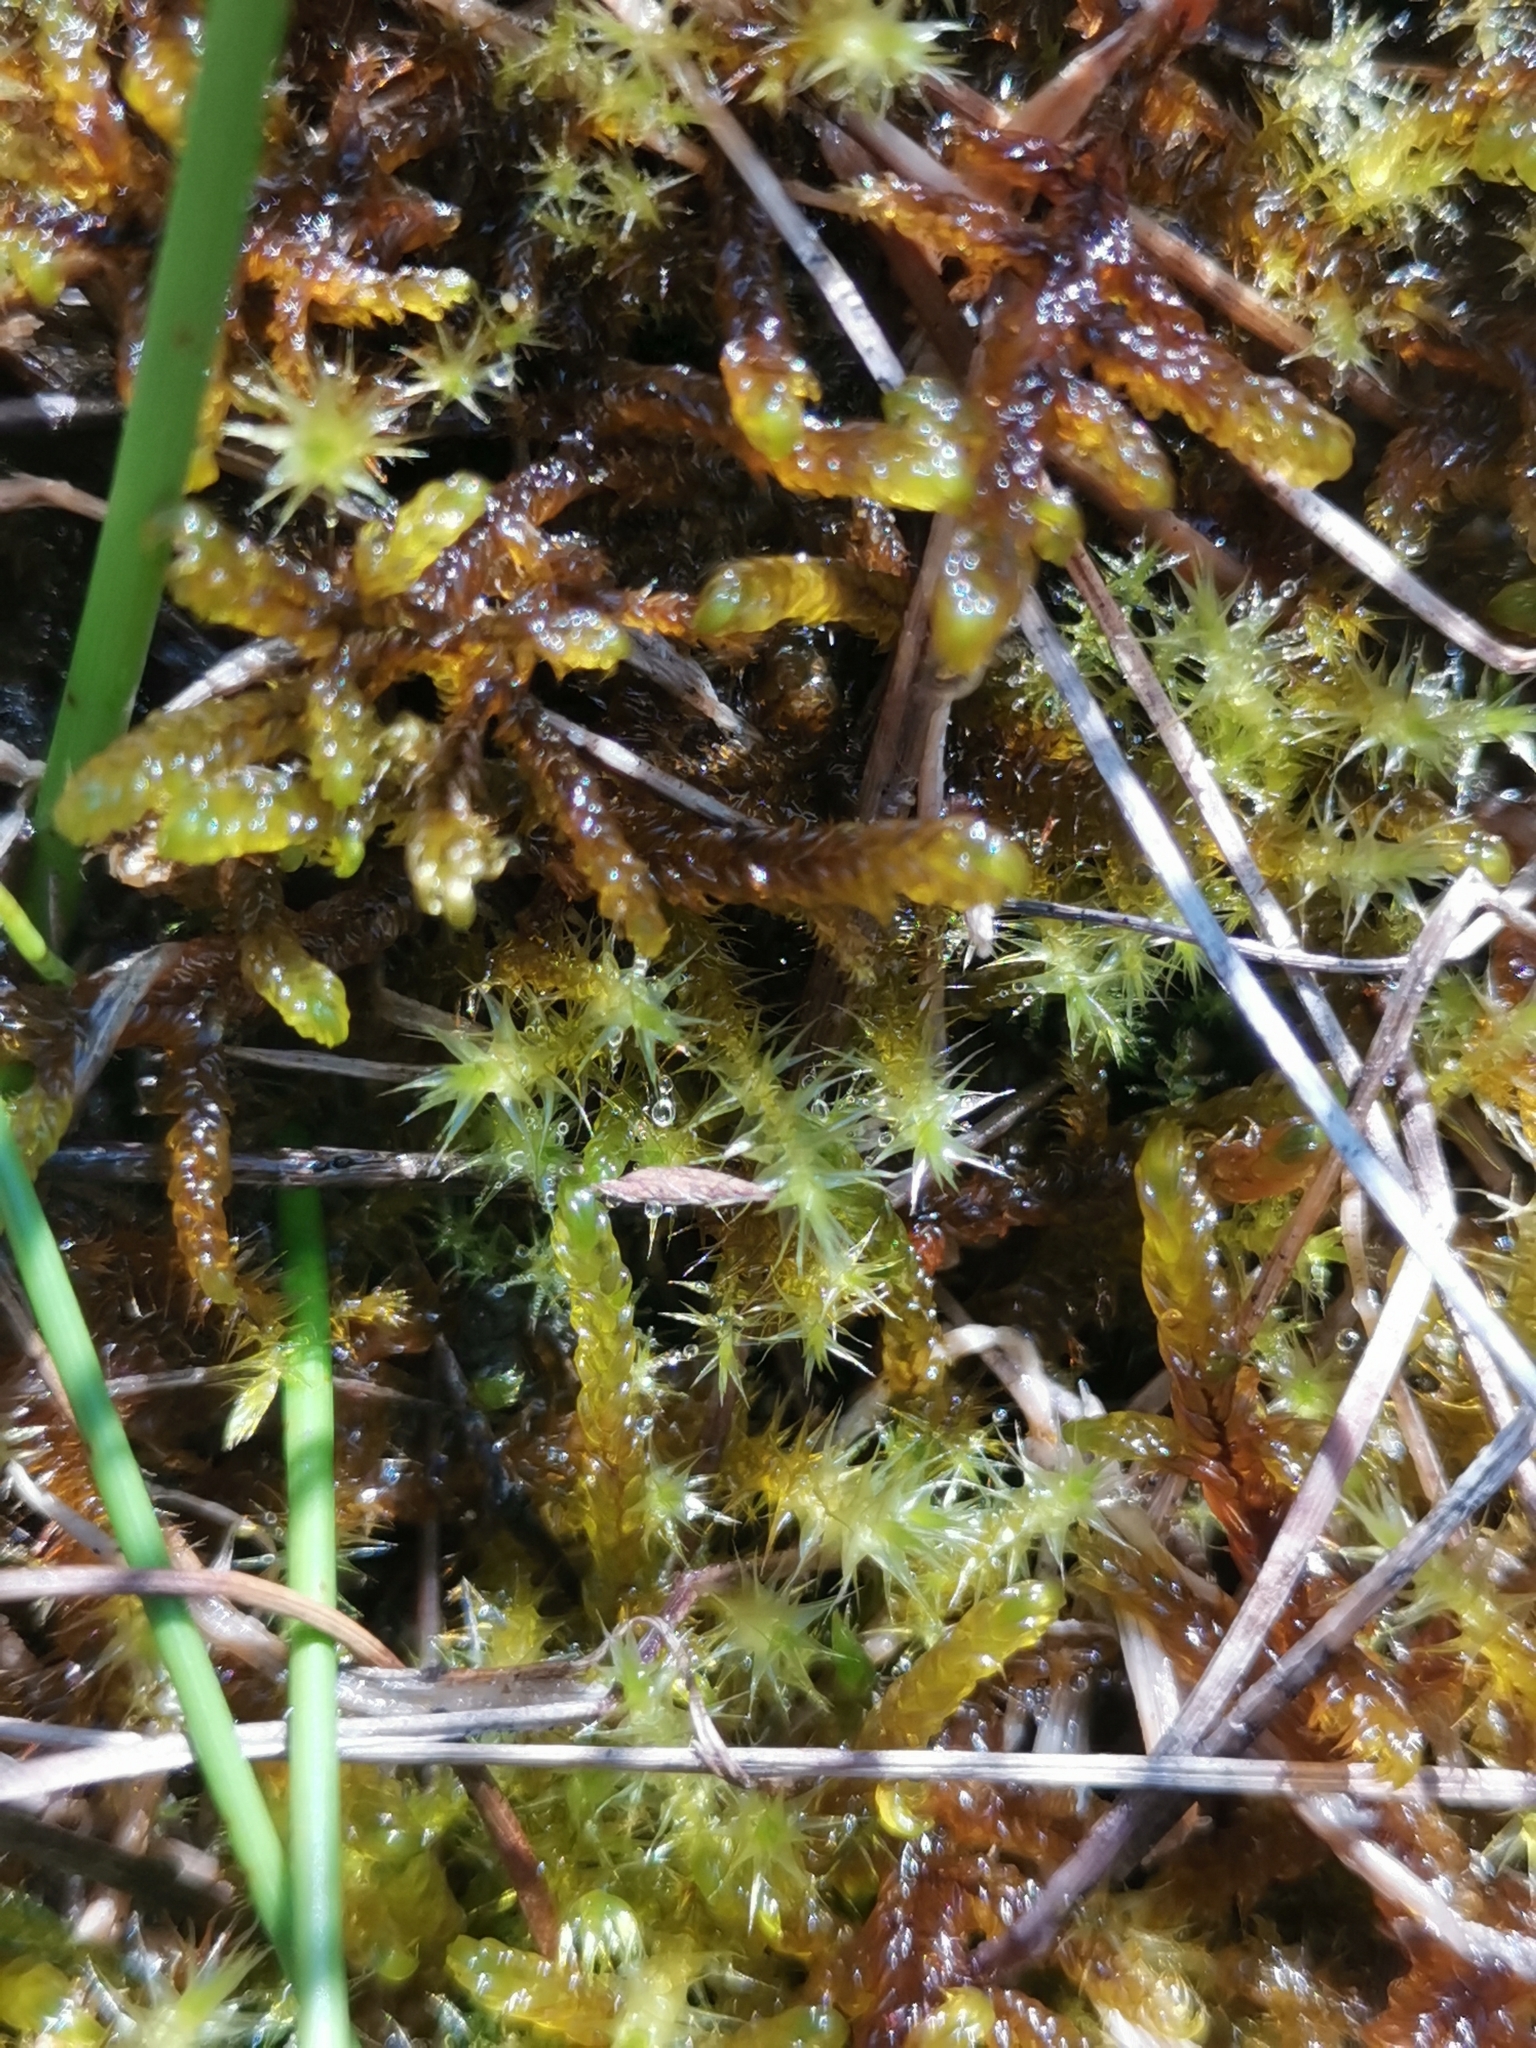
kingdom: Plantae
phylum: Bryophyta
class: Bryopsida
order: Hypnales
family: Amblystegiaceae
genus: Campylium
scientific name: Campylium stellatum
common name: Yellow starry fen moss
